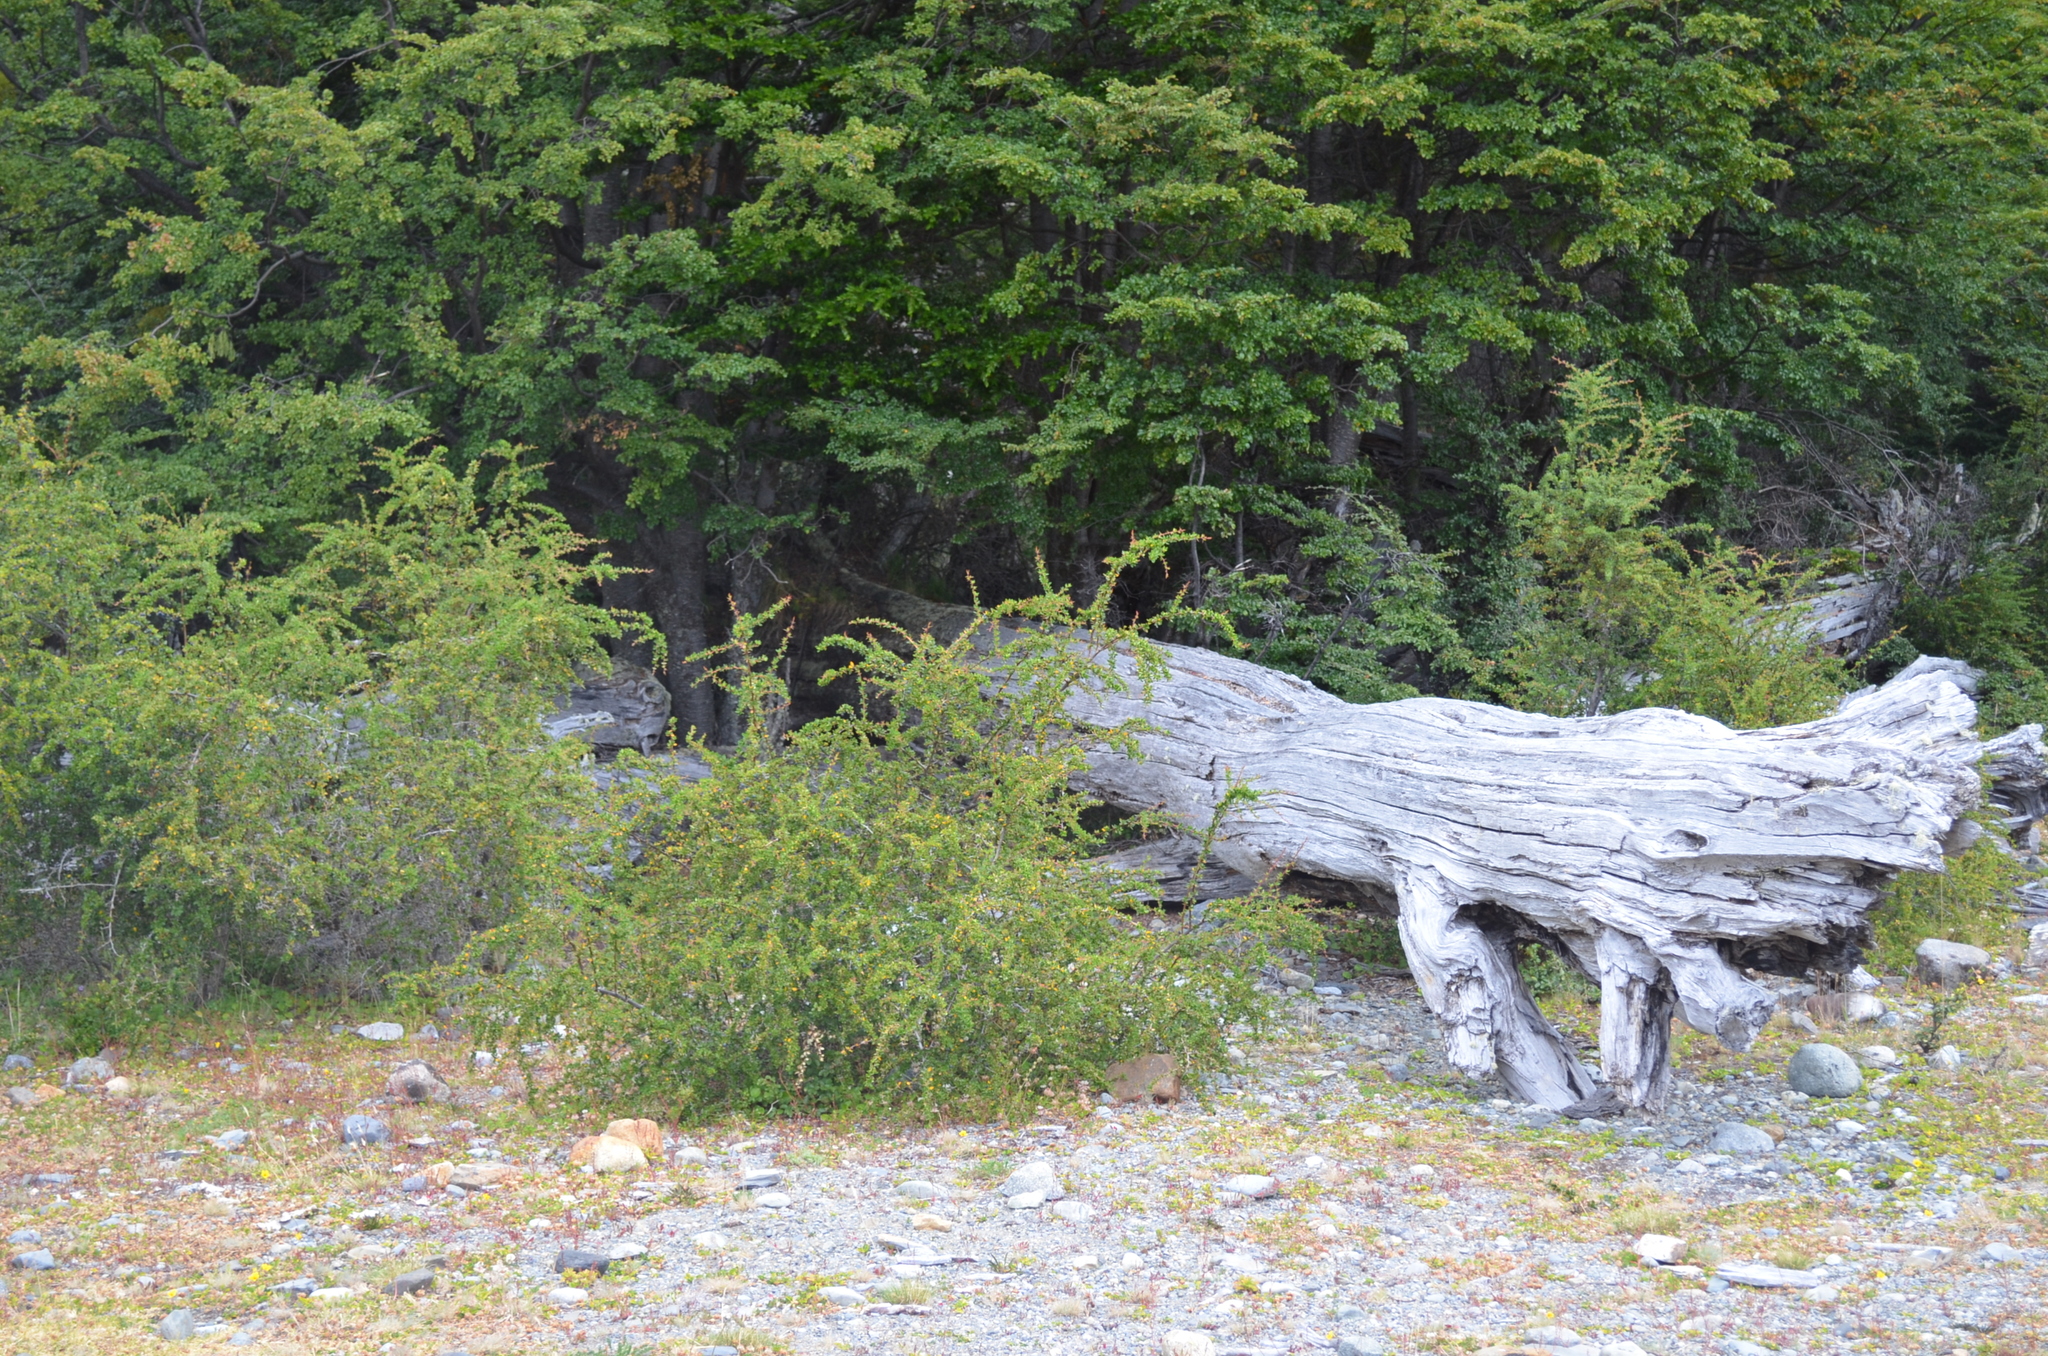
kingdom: Plantae
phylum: Tracheophyta
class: Magnoliopsida
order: Ranunculales
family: Berberidaceae
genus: Berberis
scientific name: Berberis microphylla
